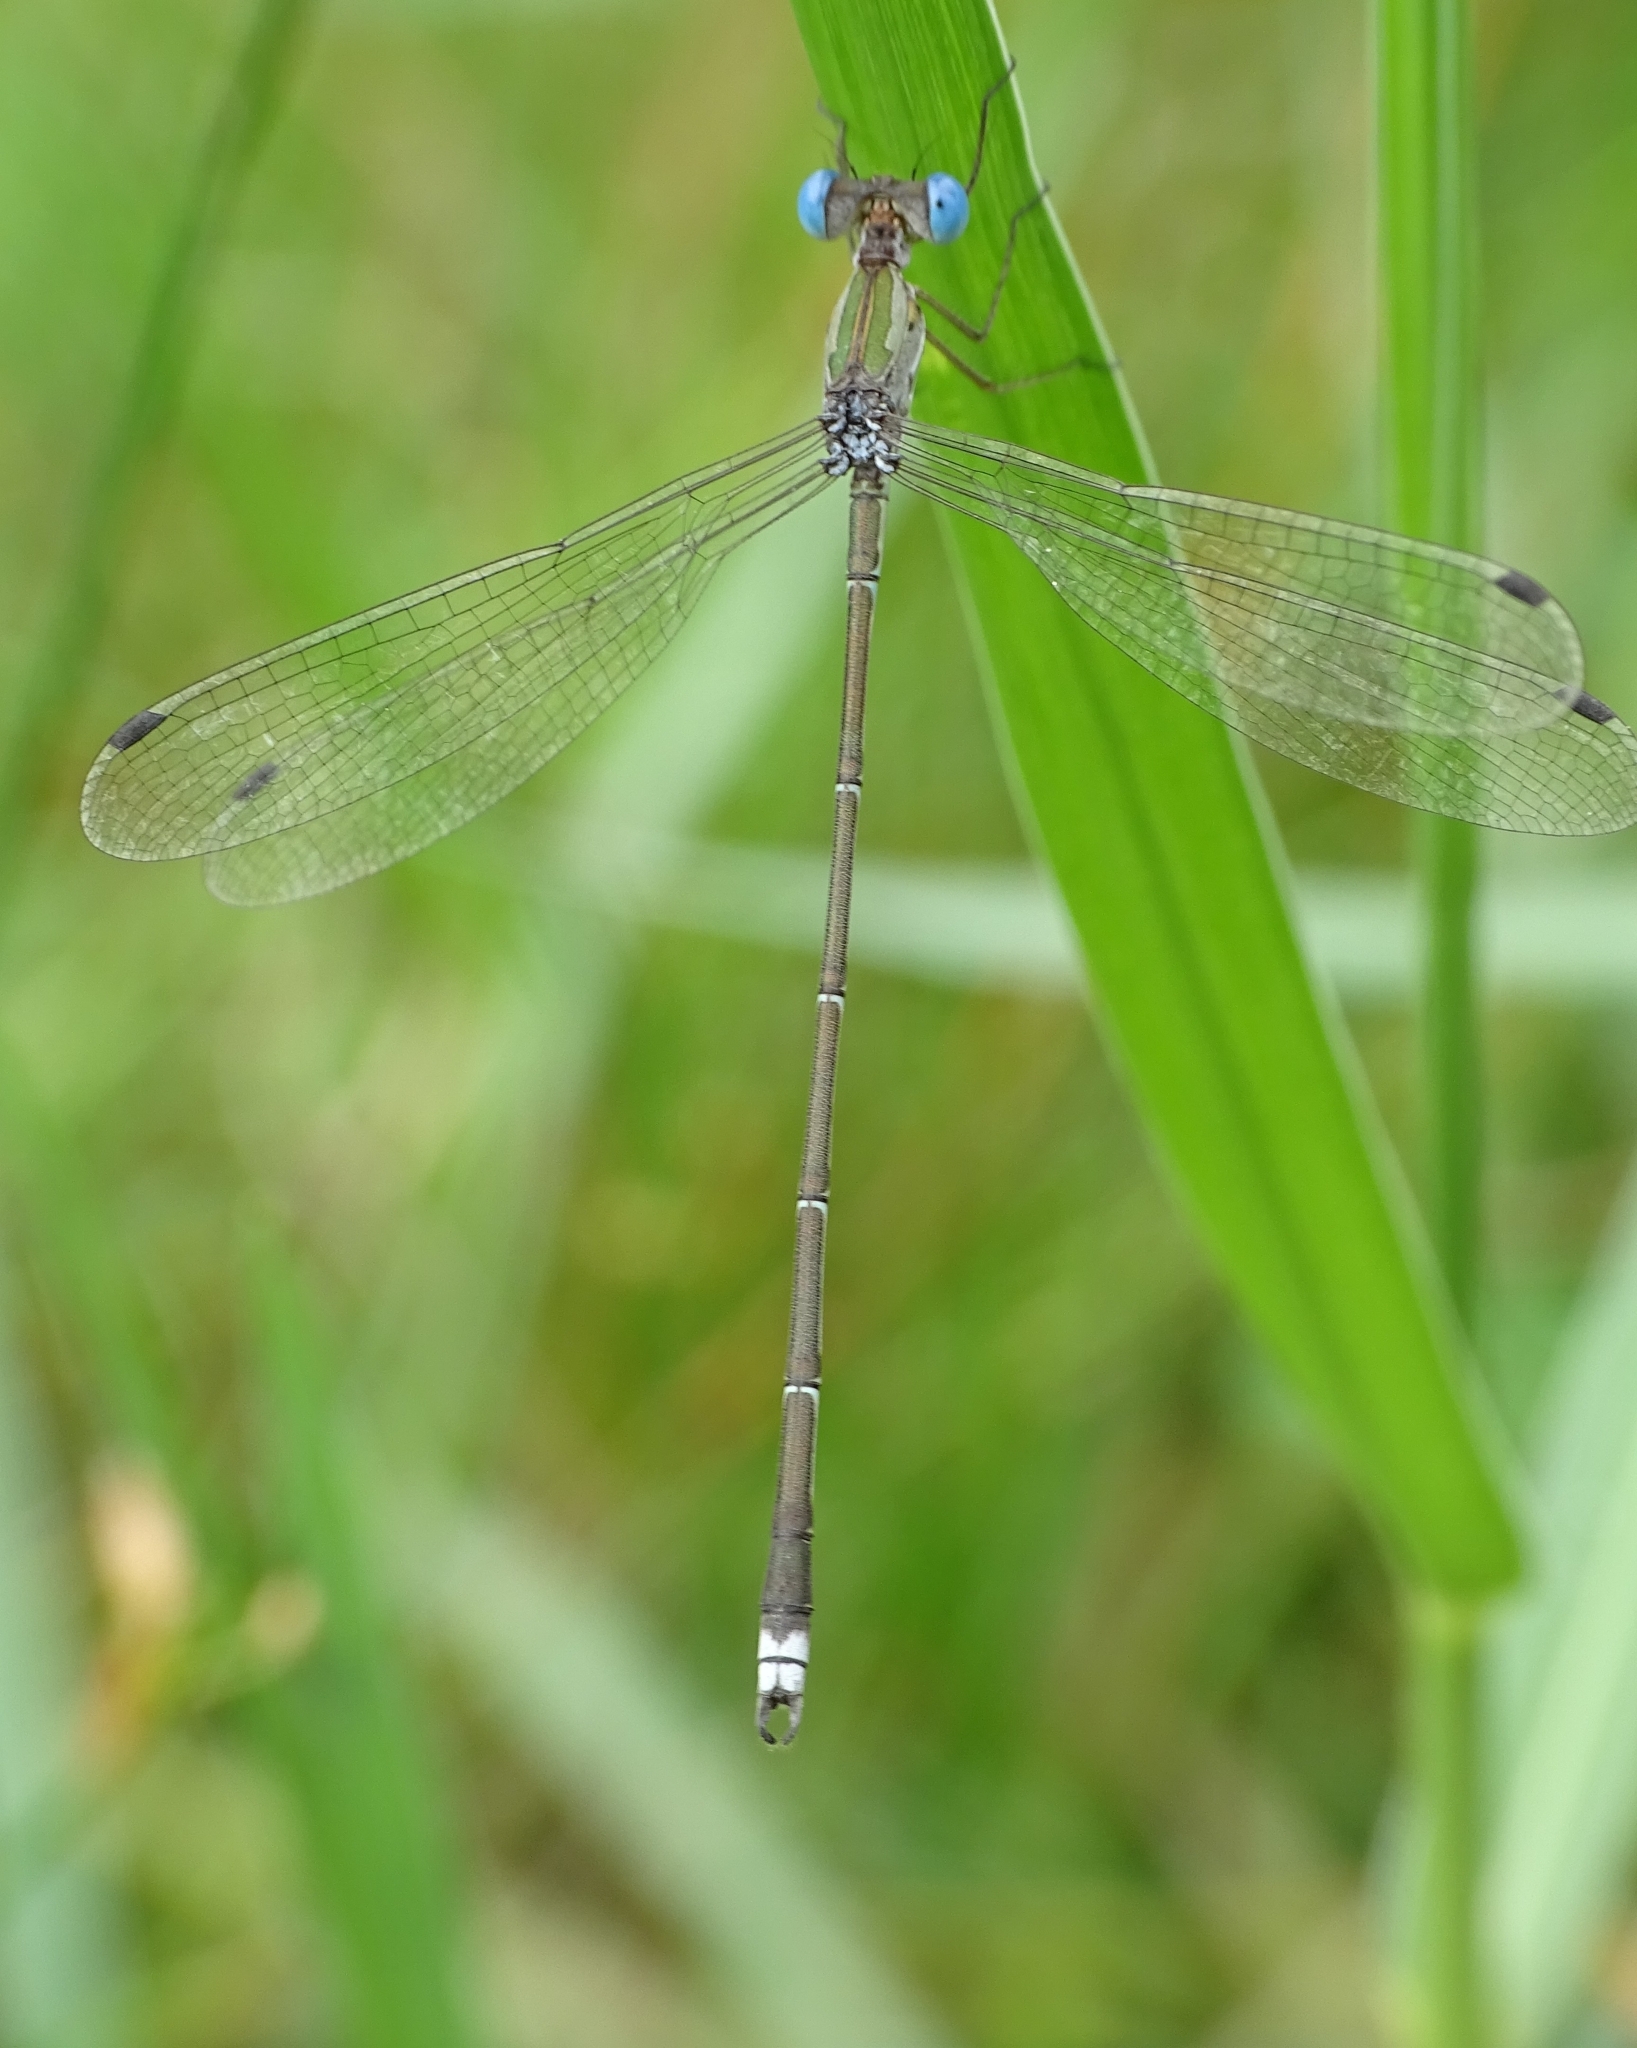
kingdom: Animalia
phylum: Arthropoda
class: Insecta
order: Odonata
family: Lestidae
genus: Lestes
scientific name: Lestes elatus
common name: Emerald spreadwing
